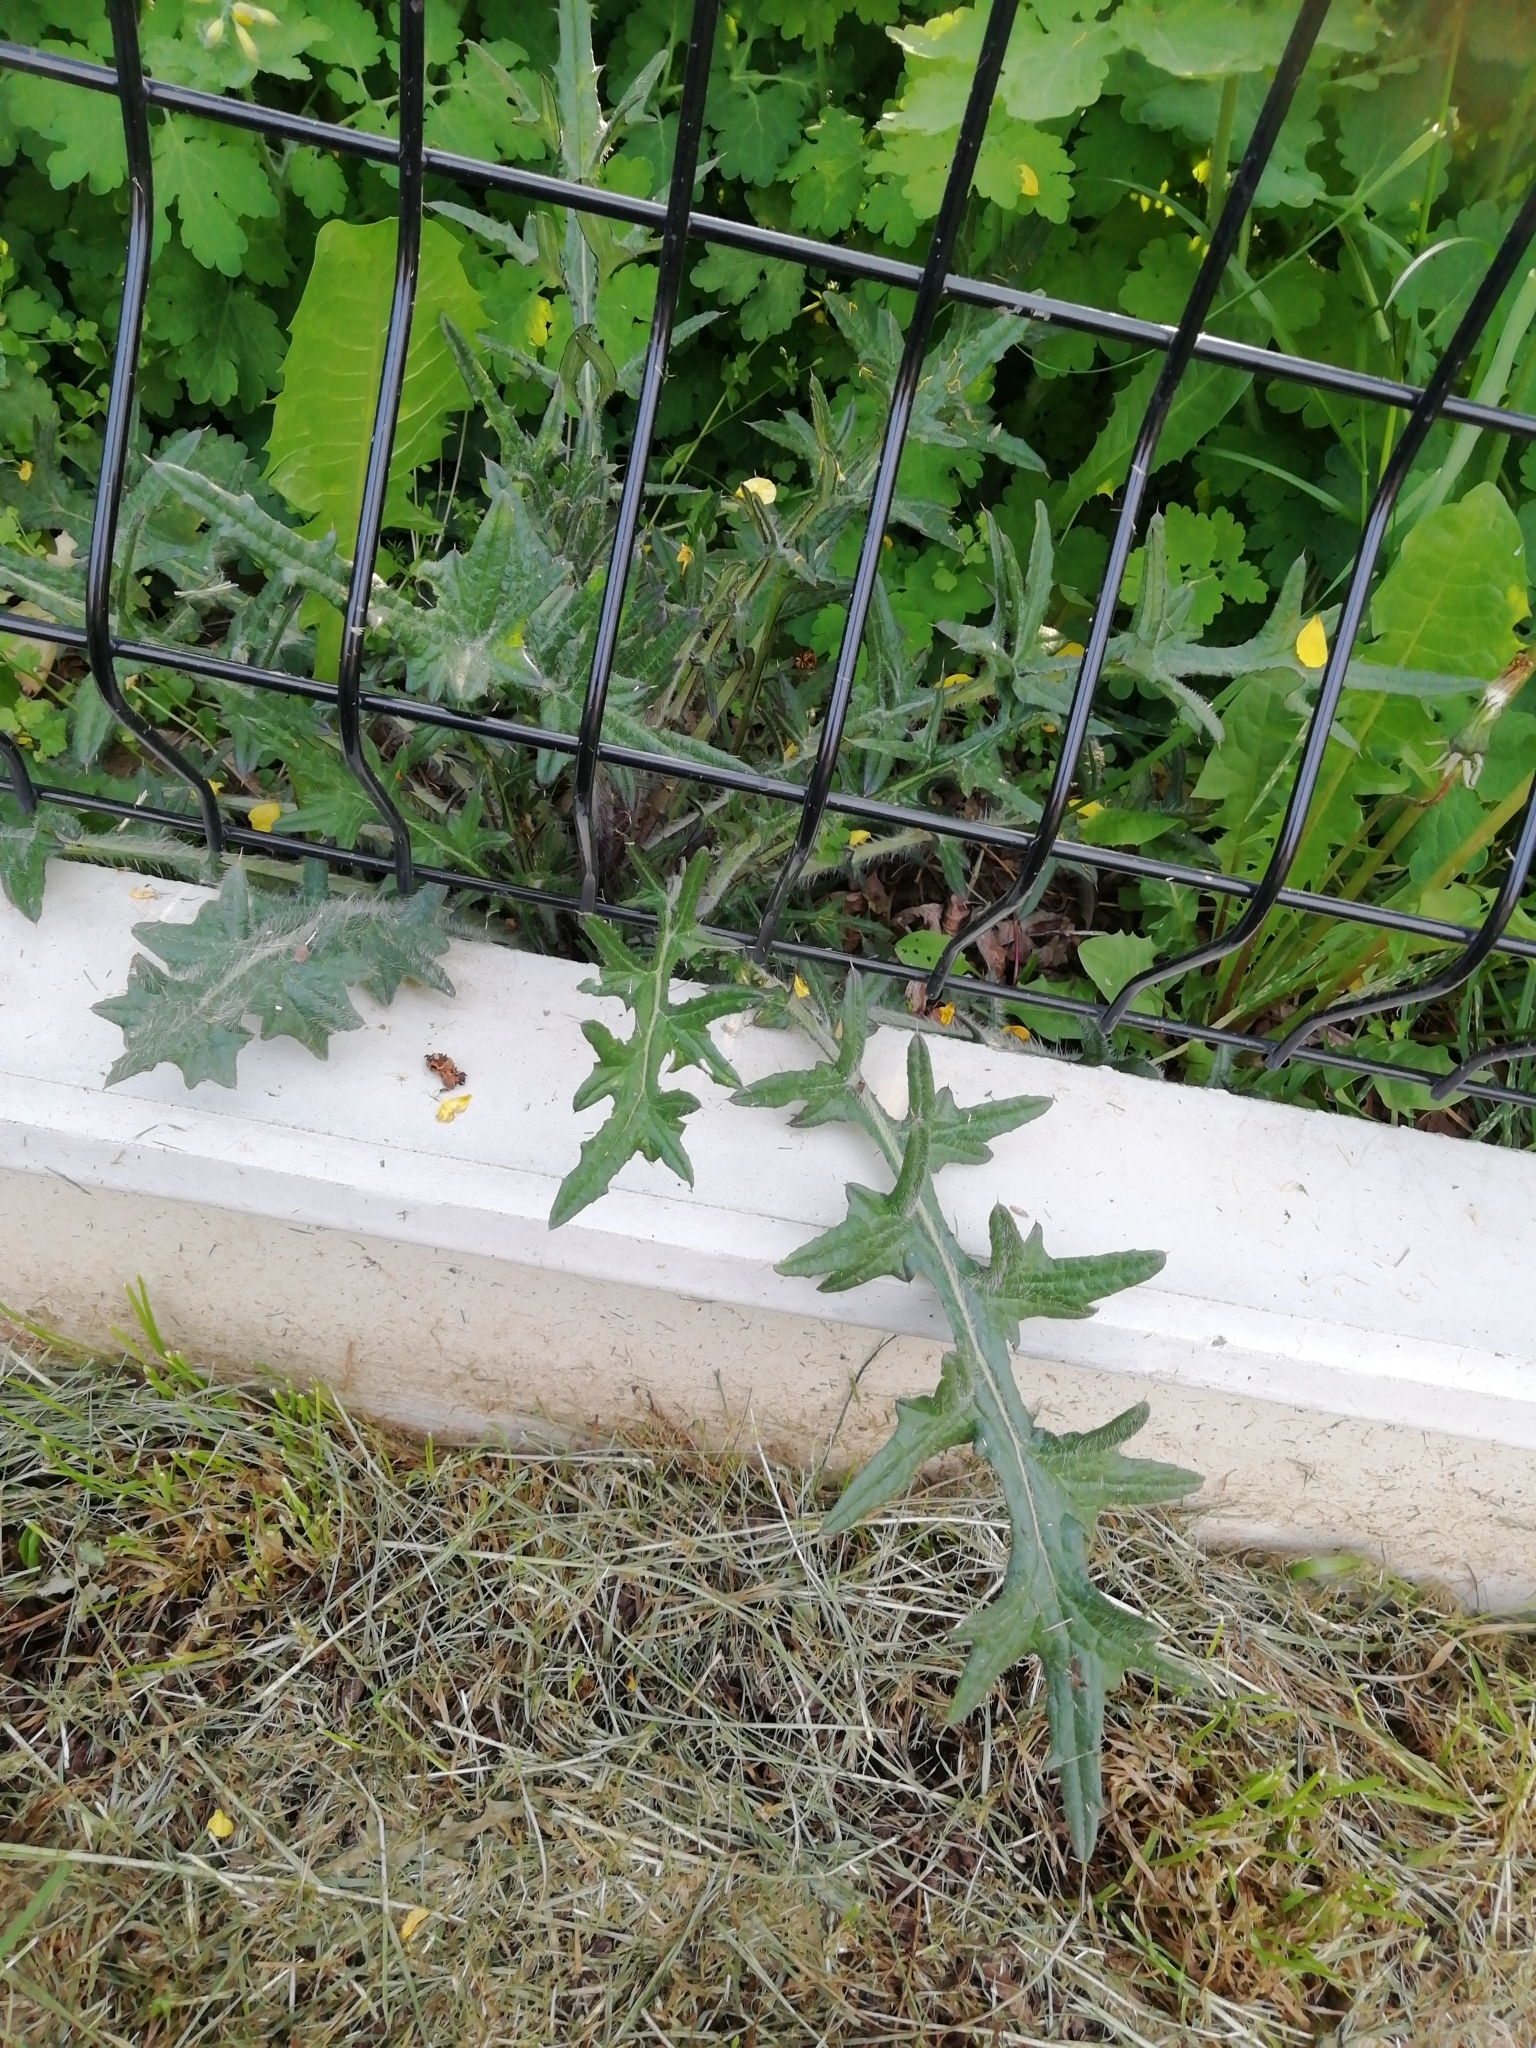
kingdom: Plantae
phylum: Tracheophyta
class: Magnoliopsida
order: Asterales
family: Asteraceae
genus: Cirsium
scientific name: Cirsium vulgare
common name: Bull thistle
